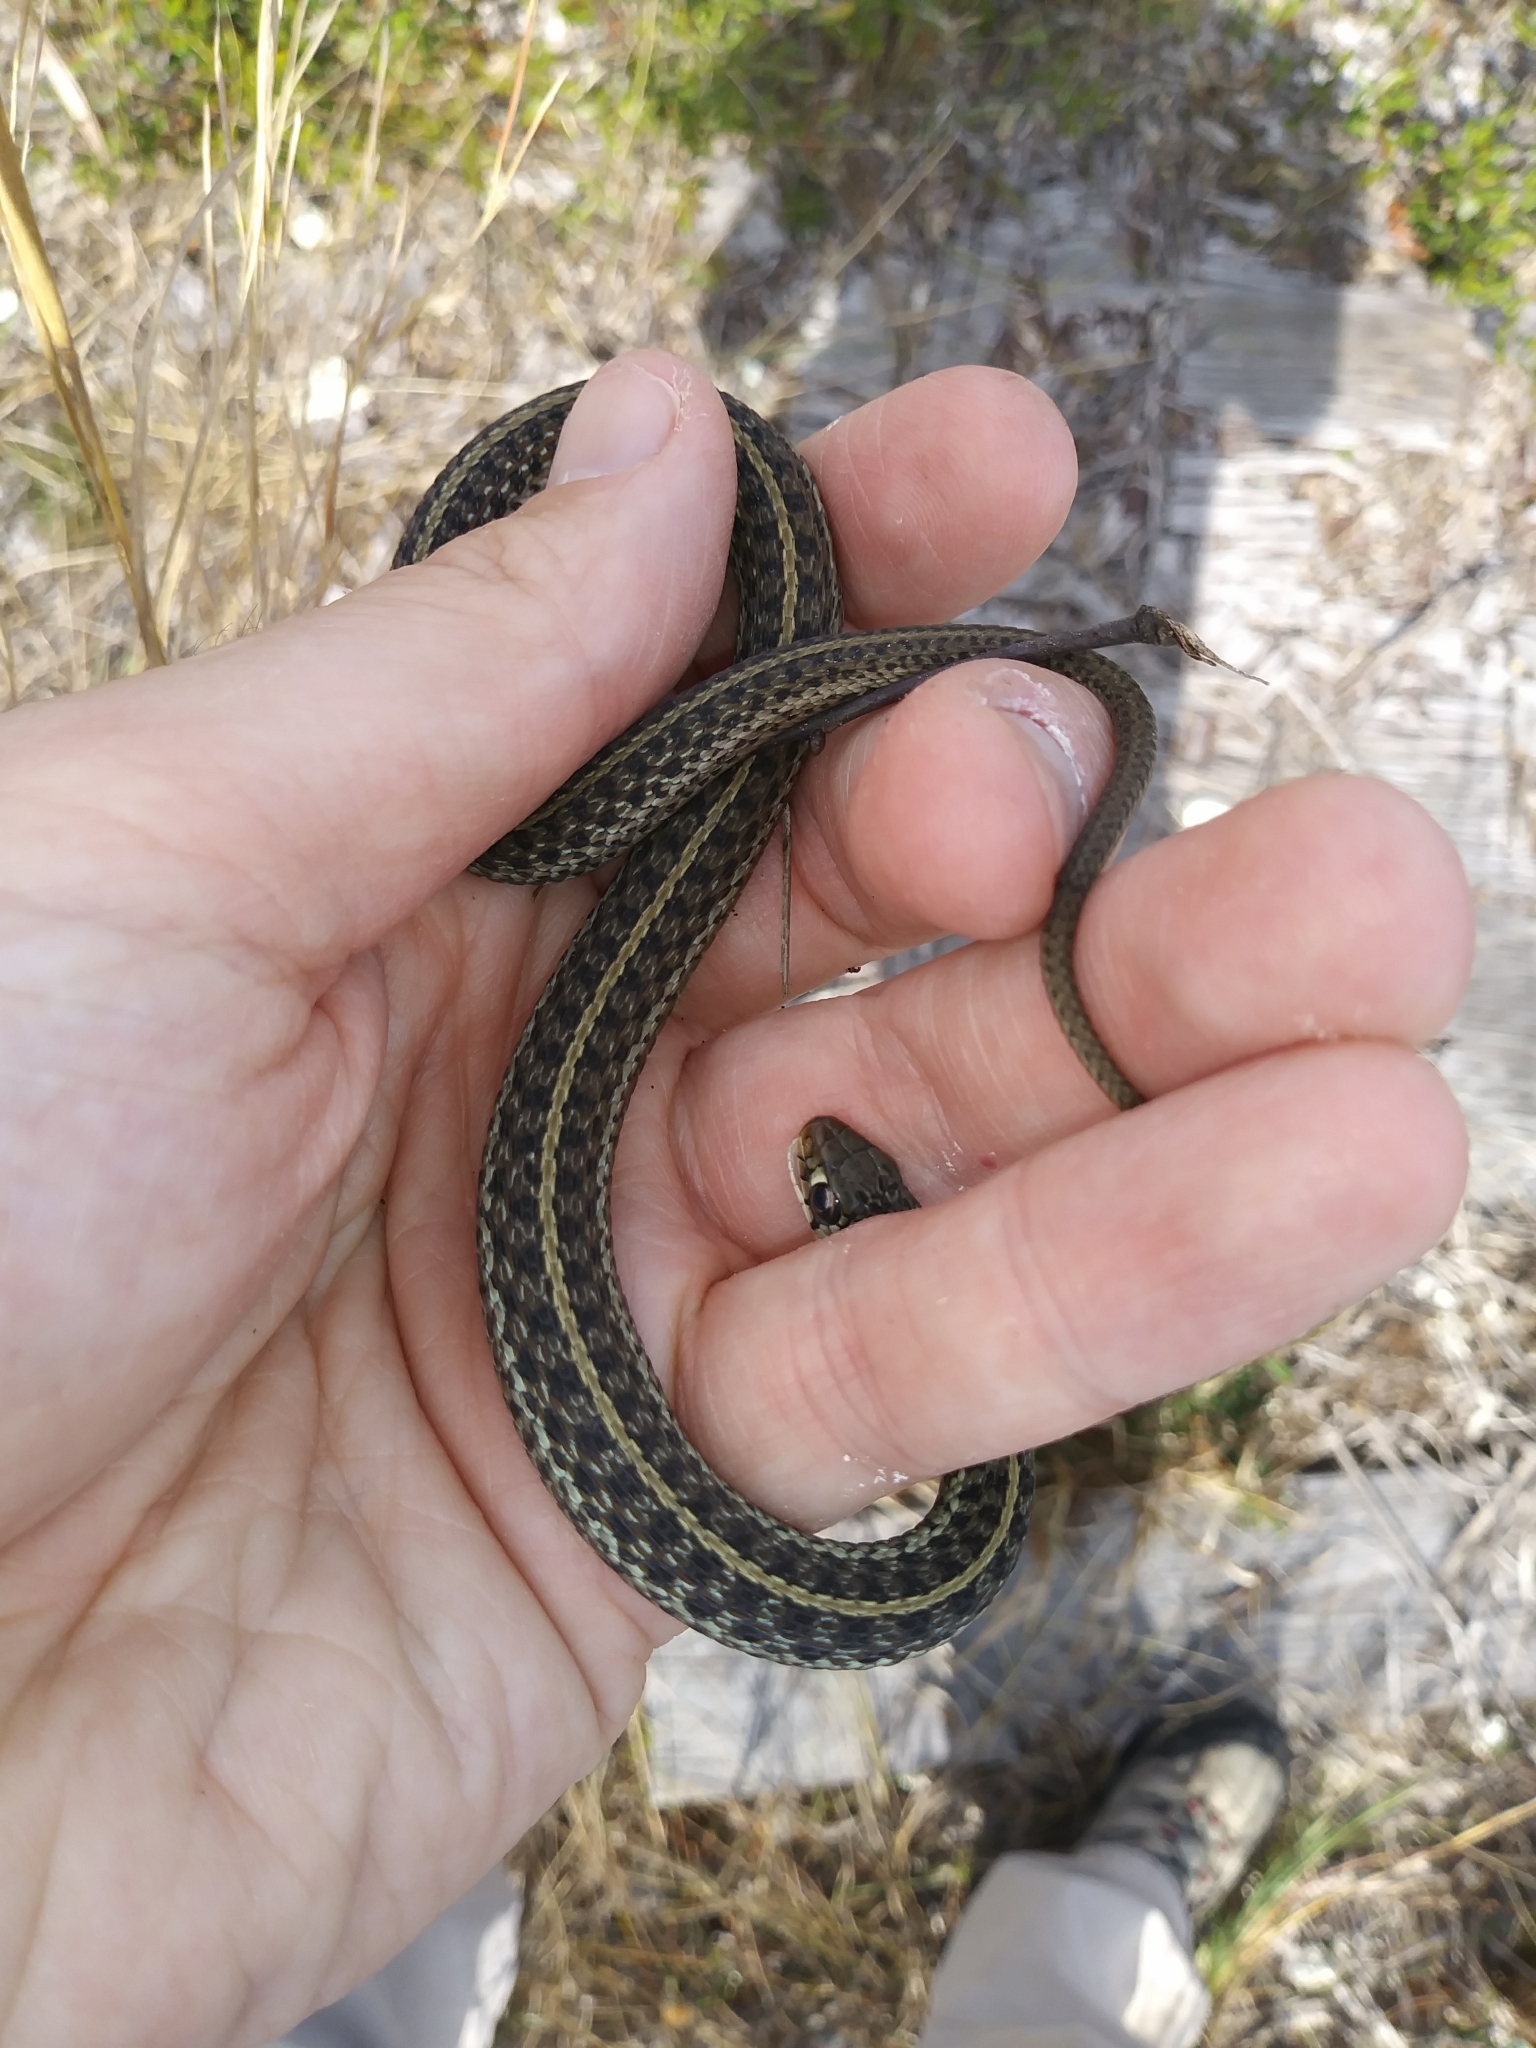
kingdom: Animalia
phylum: Chordata
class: Squamata
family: Colubridae
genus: Thamnophis
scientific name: Thamnophis sirtalis
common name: Common garter snake
